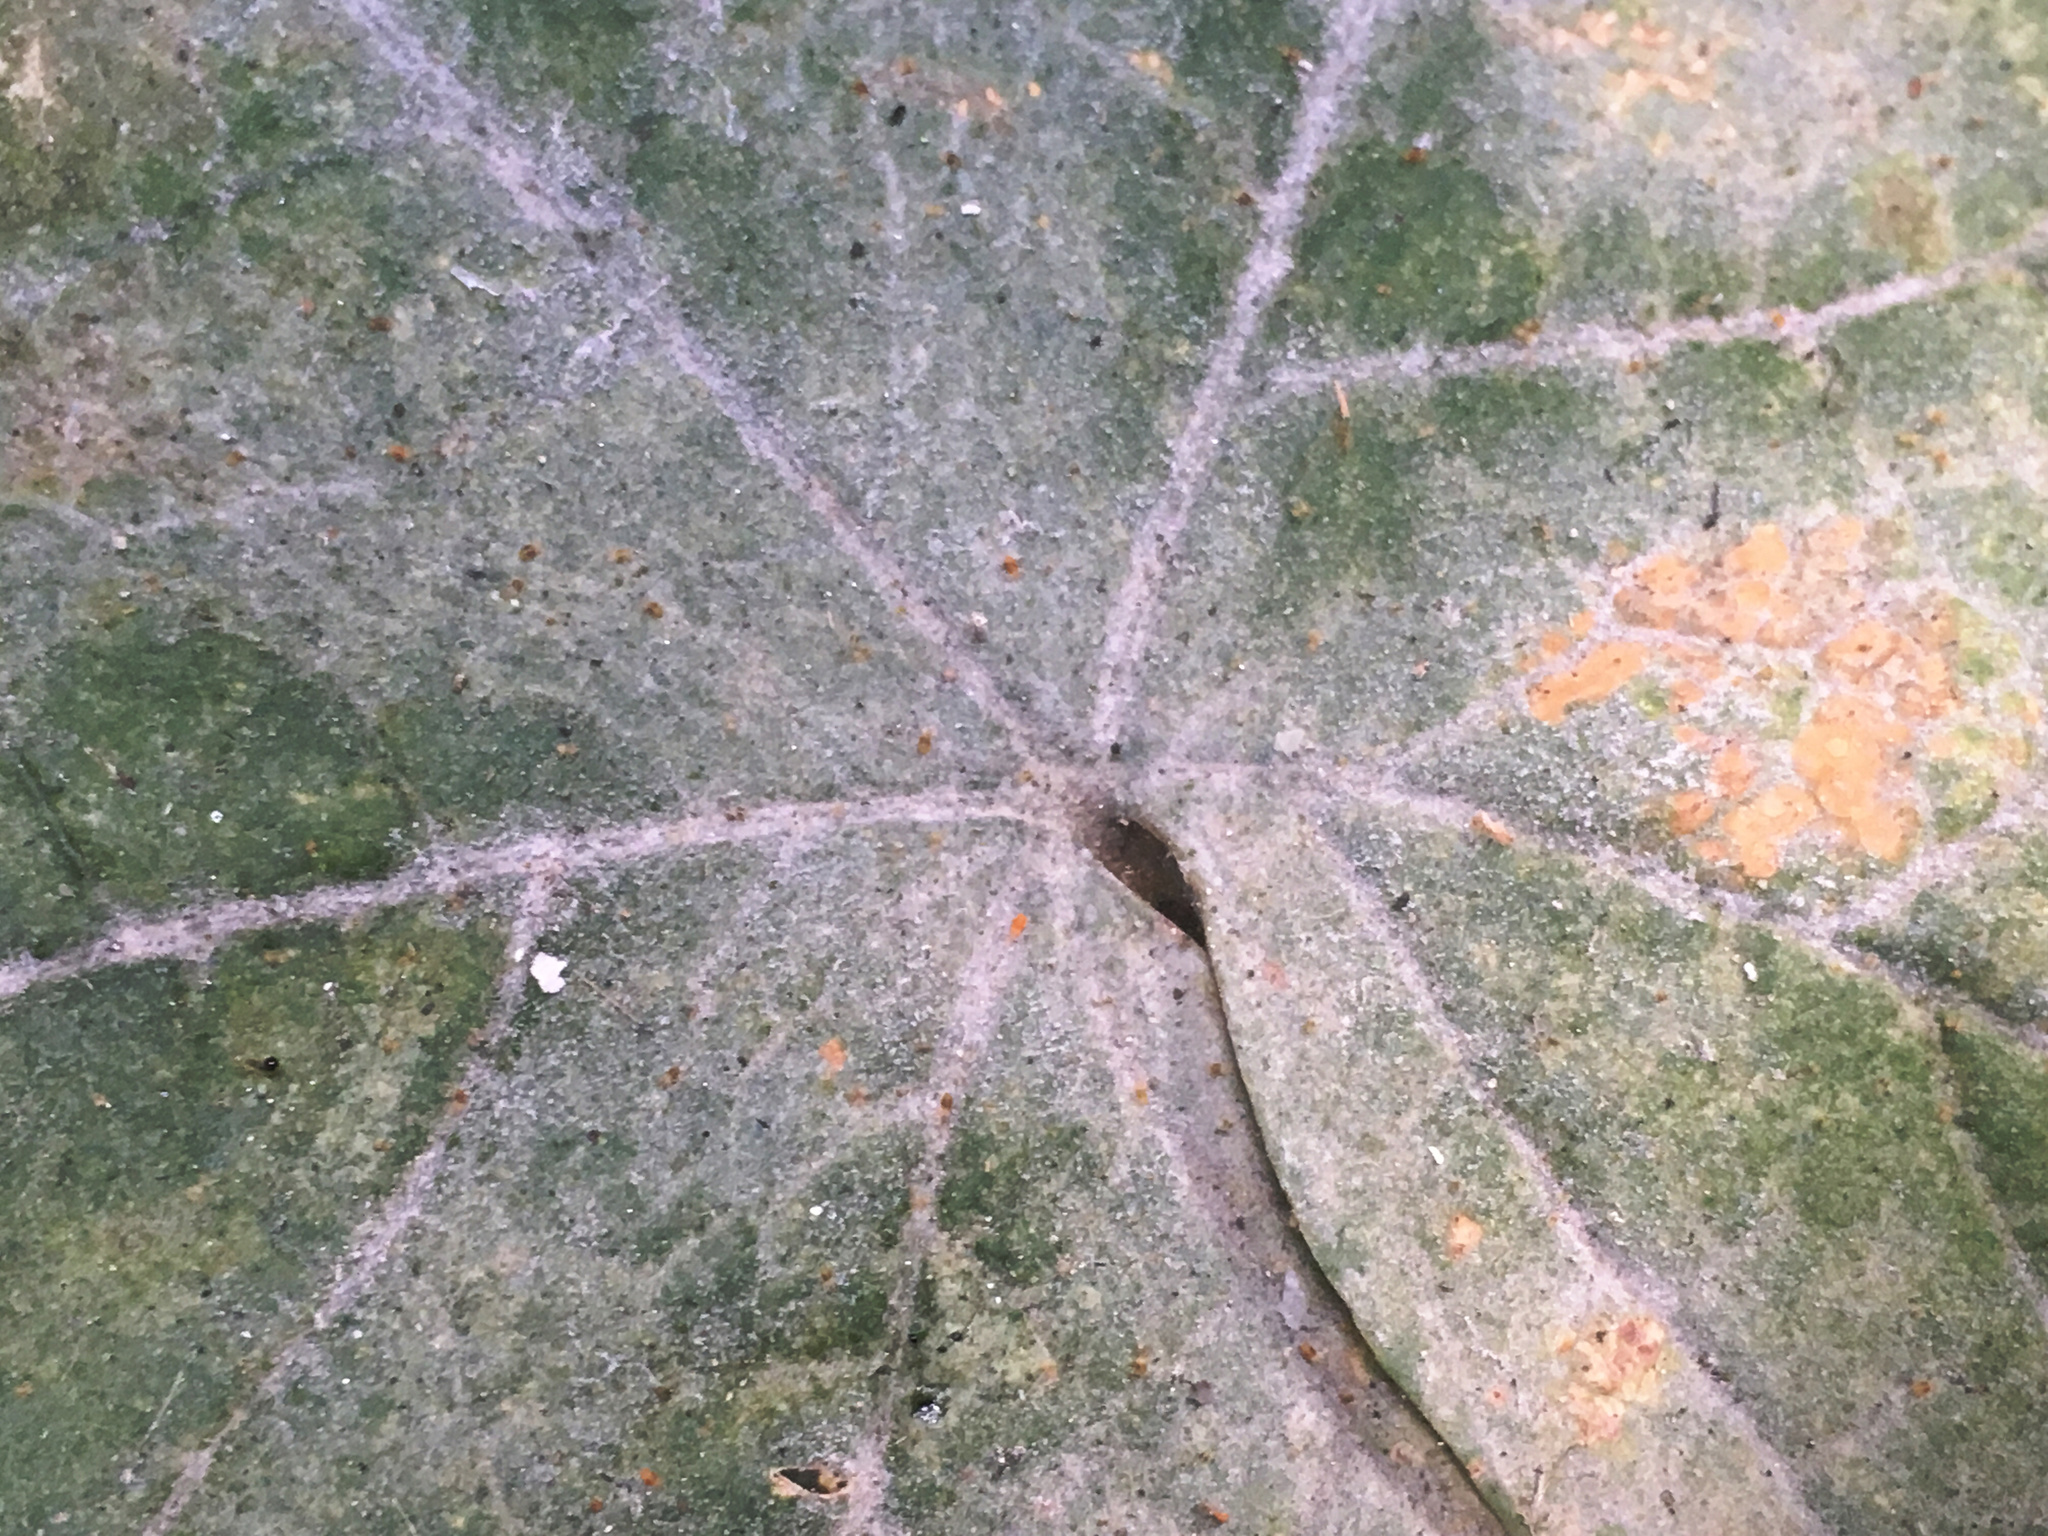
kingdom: Fungi
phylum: Ascomycota
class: Leotiomycetes
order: Helotiales
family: Erysiphaceae
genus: Sawadaea
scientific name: Sawadaea bicornis
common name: Maple mildew
